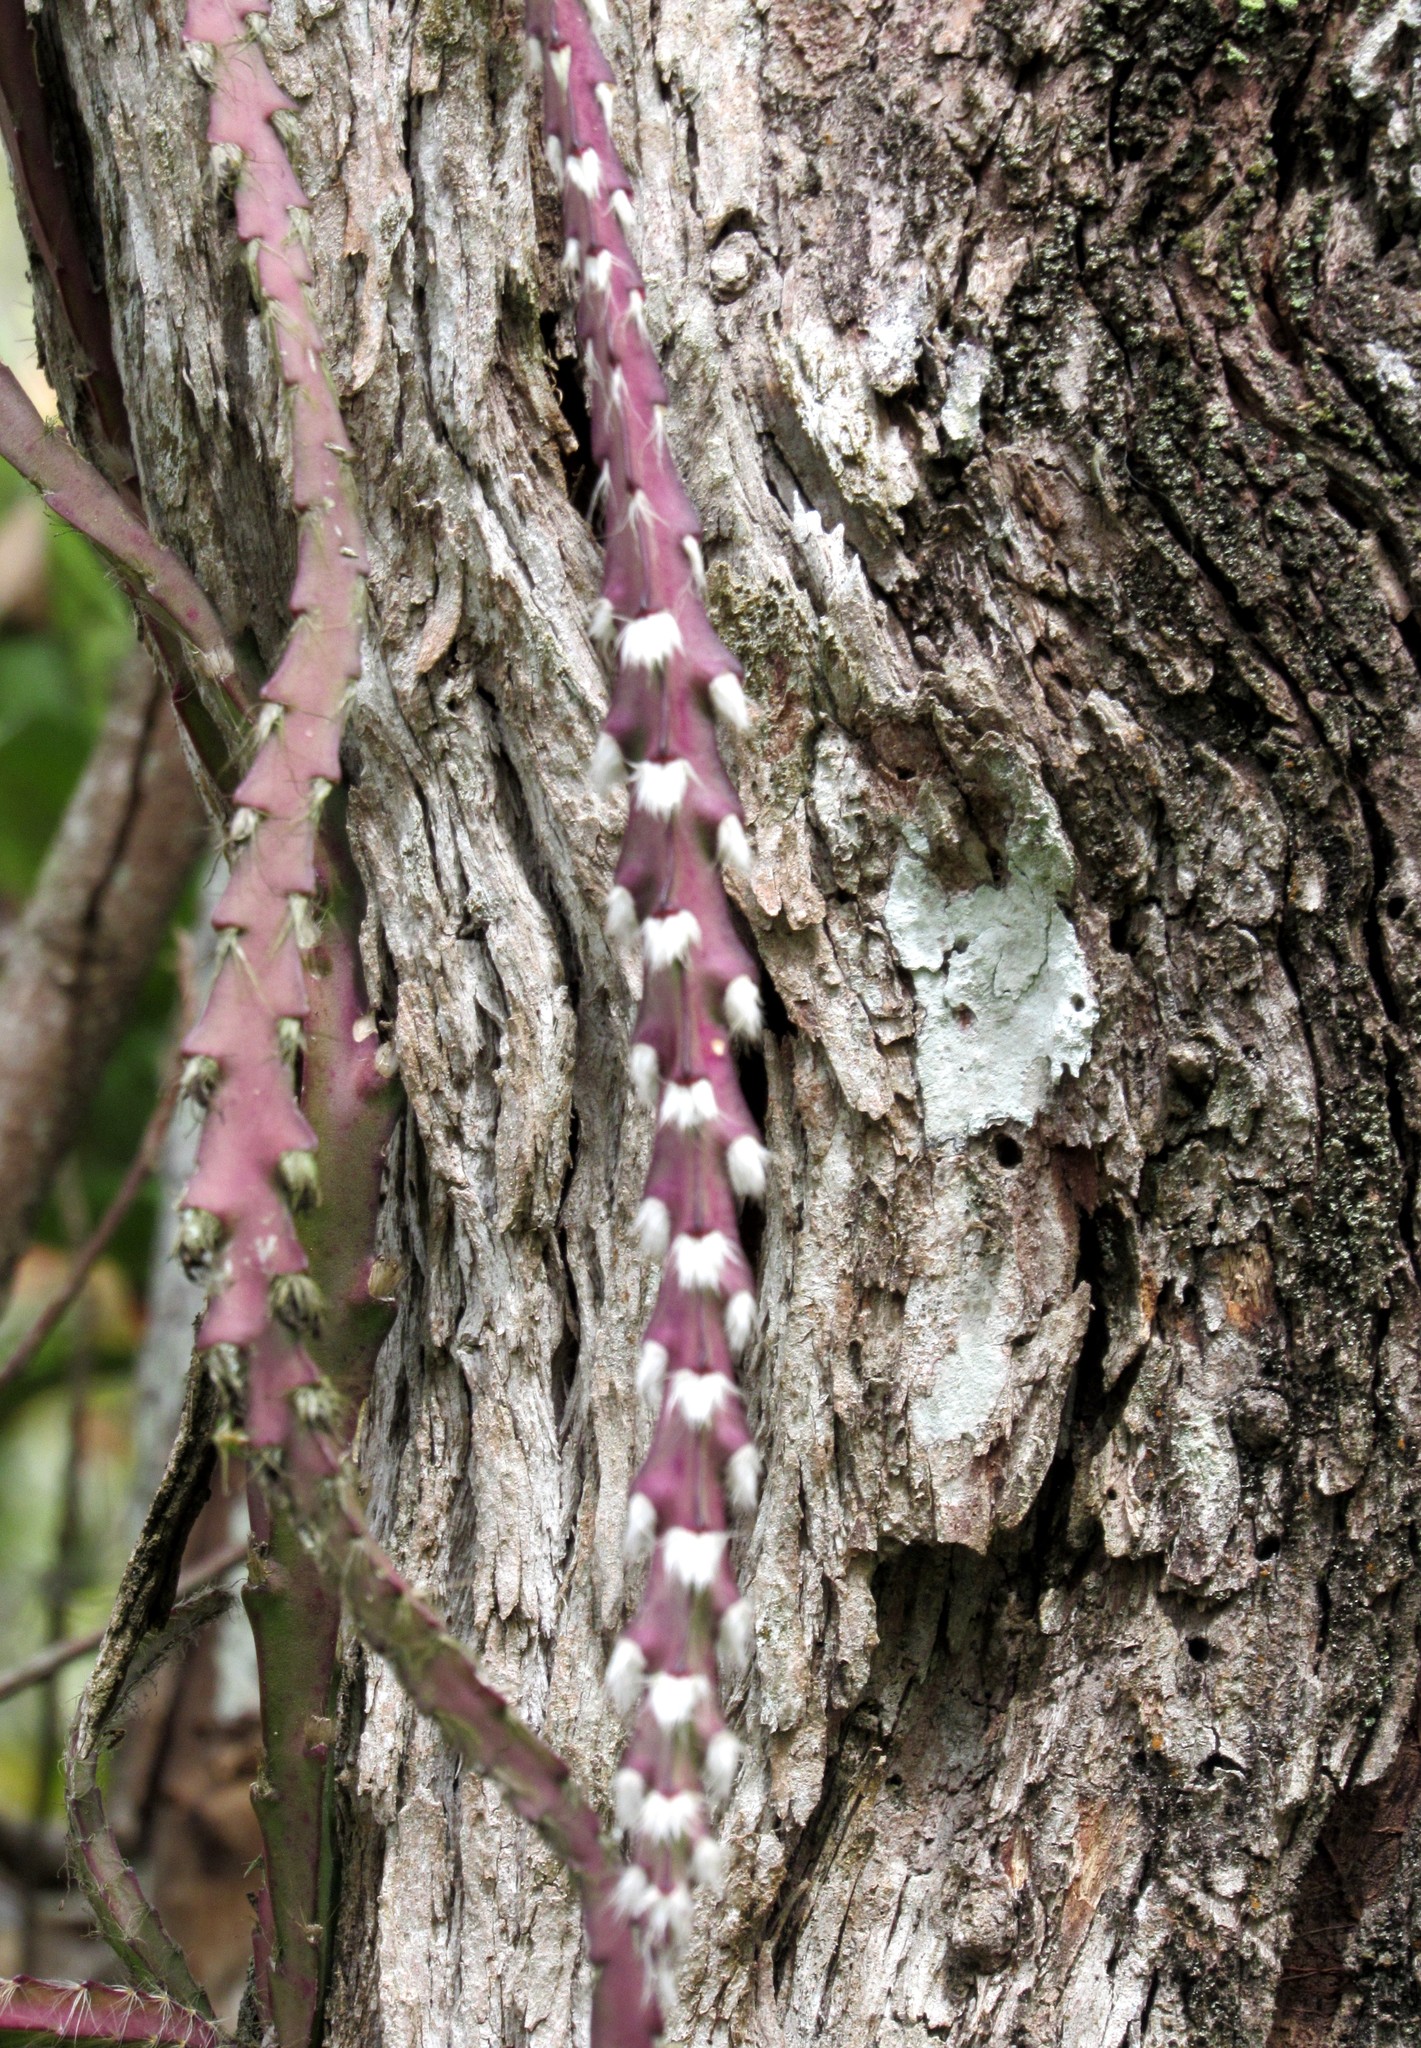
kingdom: Plantae
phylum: Tracheophyta
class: Magnoliopsida
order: Caryophyllales
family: Cactaceae
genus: Lepismium
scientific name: Lepismium cruciforme
